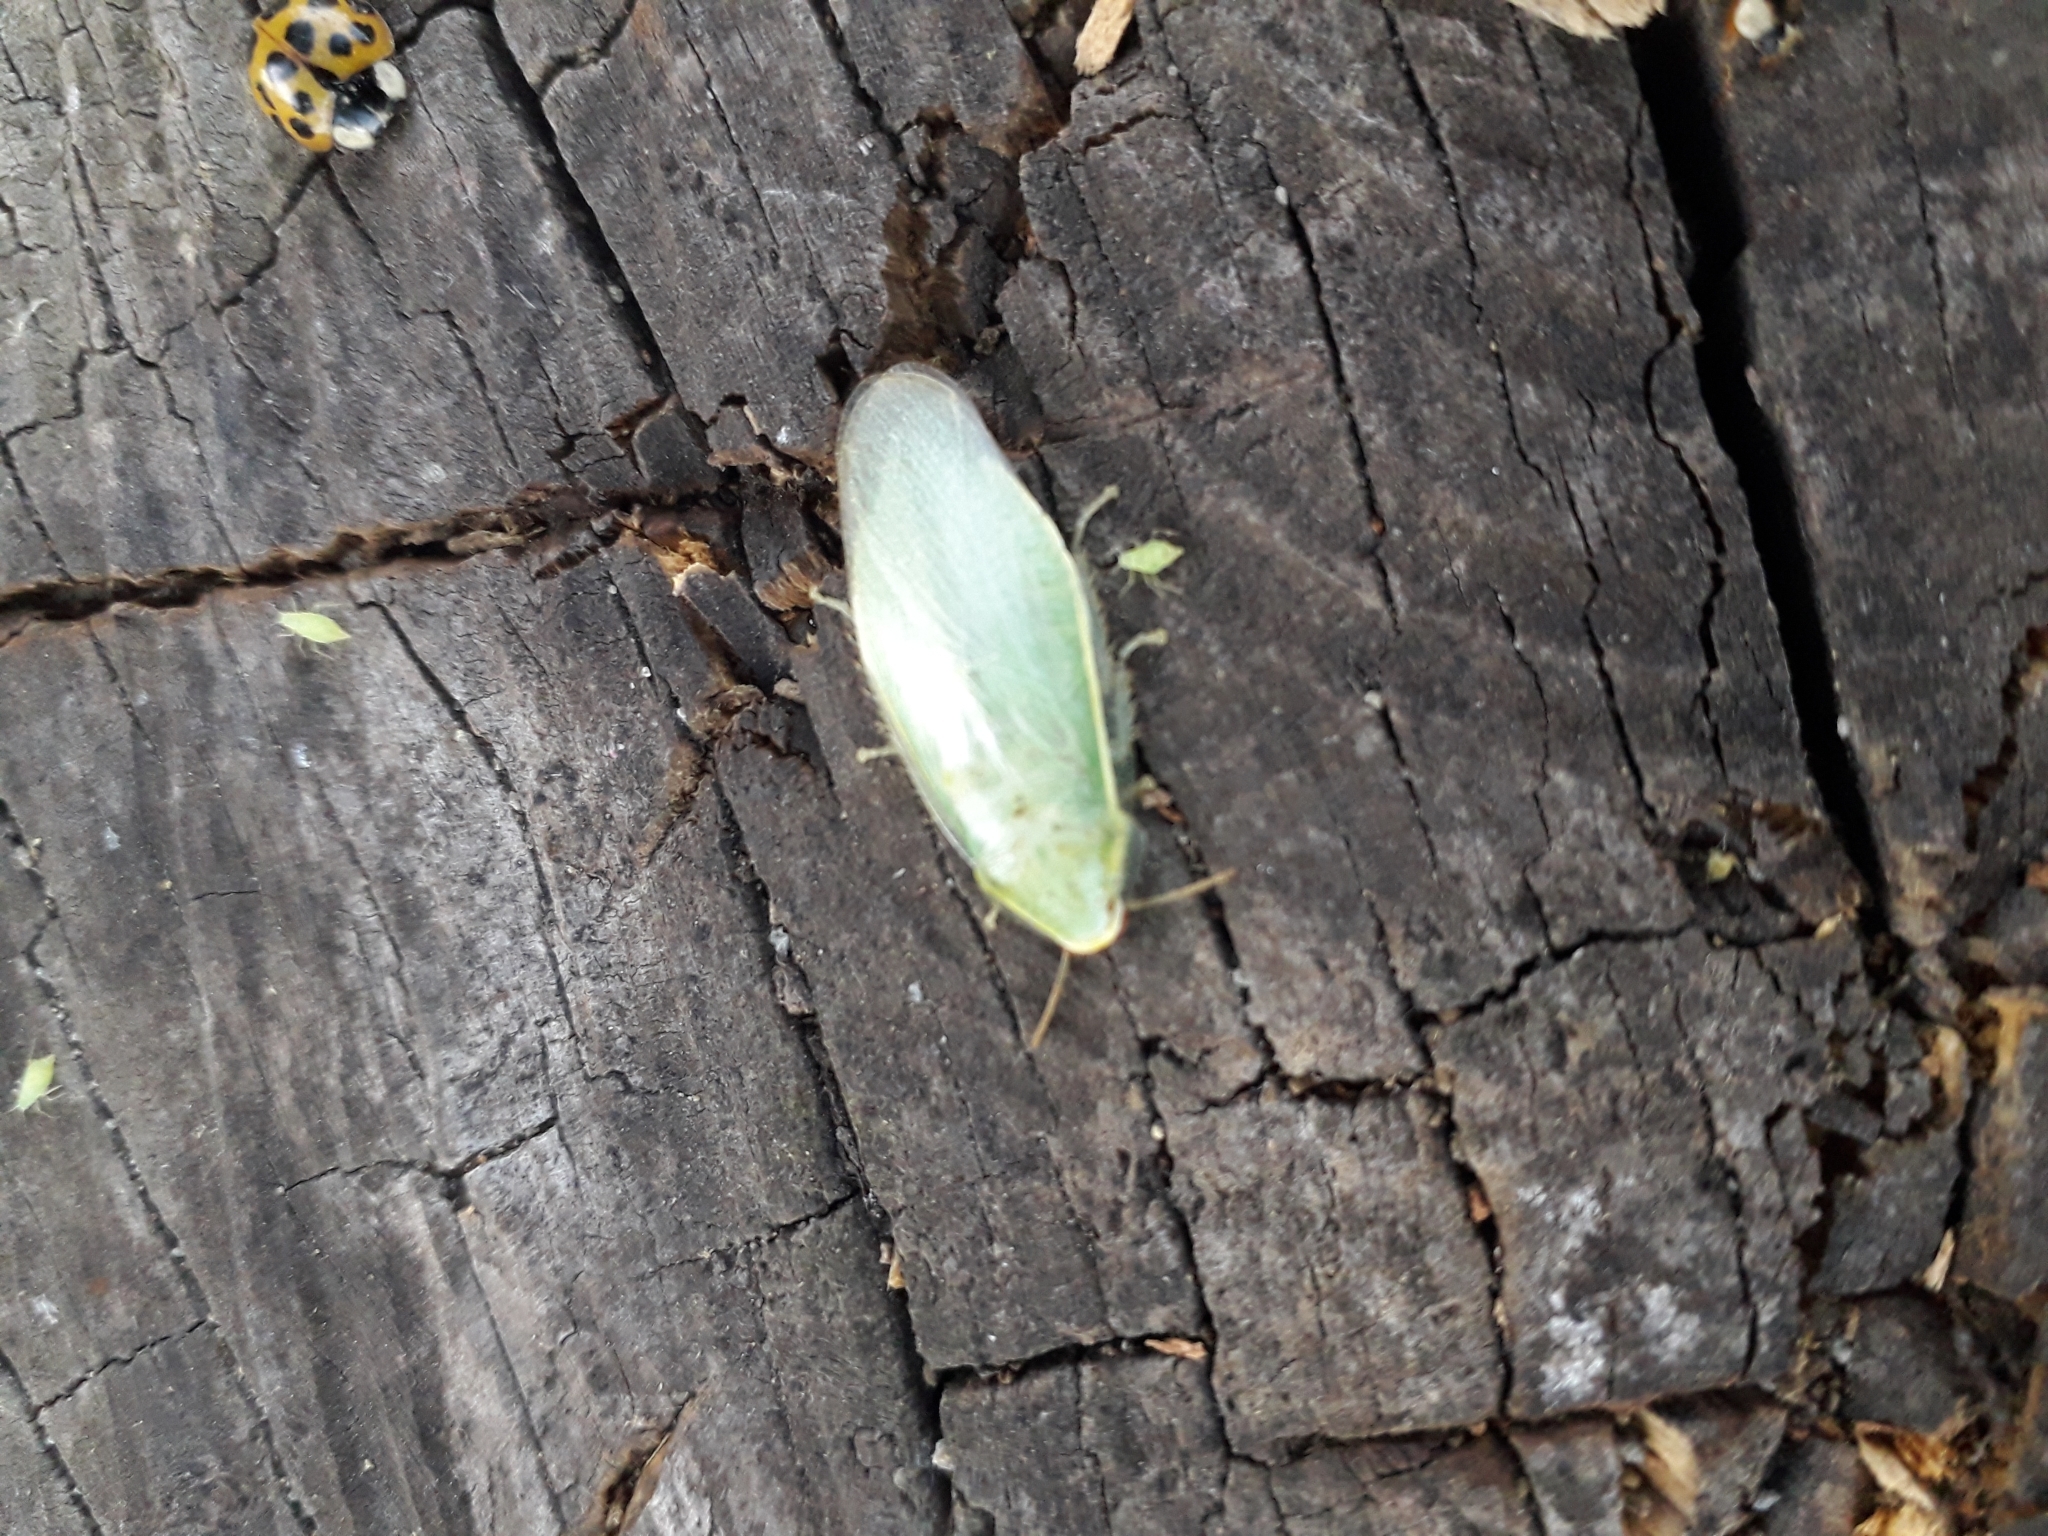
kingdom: Animalia
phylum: Arthropoda
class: Insecta
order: Blattodea
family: Blaberidae
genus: Panchlora
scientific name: Panchlora thalassina
